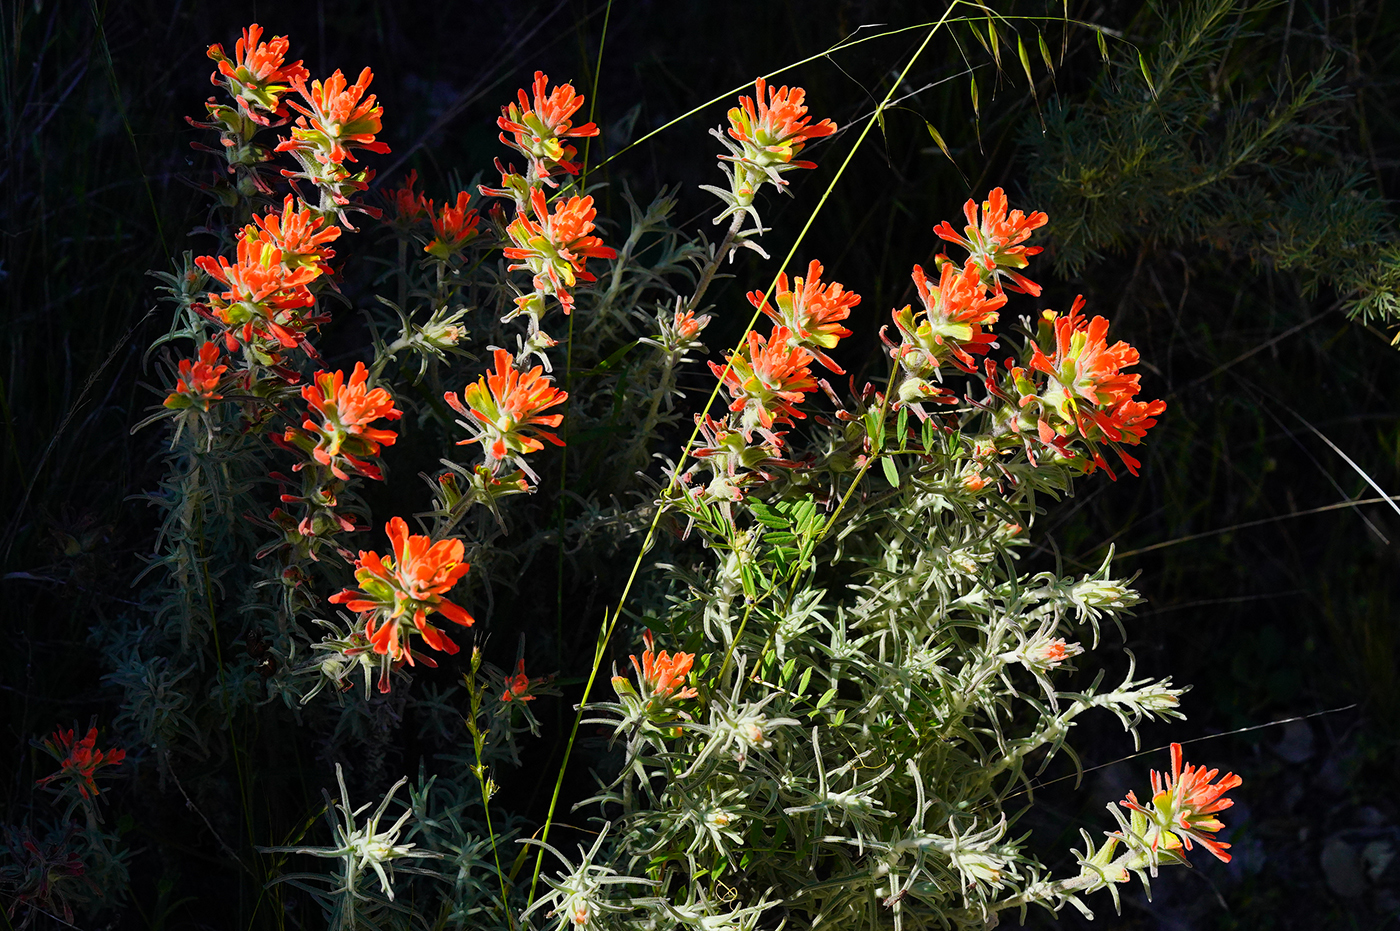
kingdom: Plantae
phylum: Tracheophyta
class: Magnoliopsida
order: Lamiales
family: Orobanchaceae
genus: Castilleja
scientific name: Castilleja foliolosa
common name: Woolly indian paintbrush
